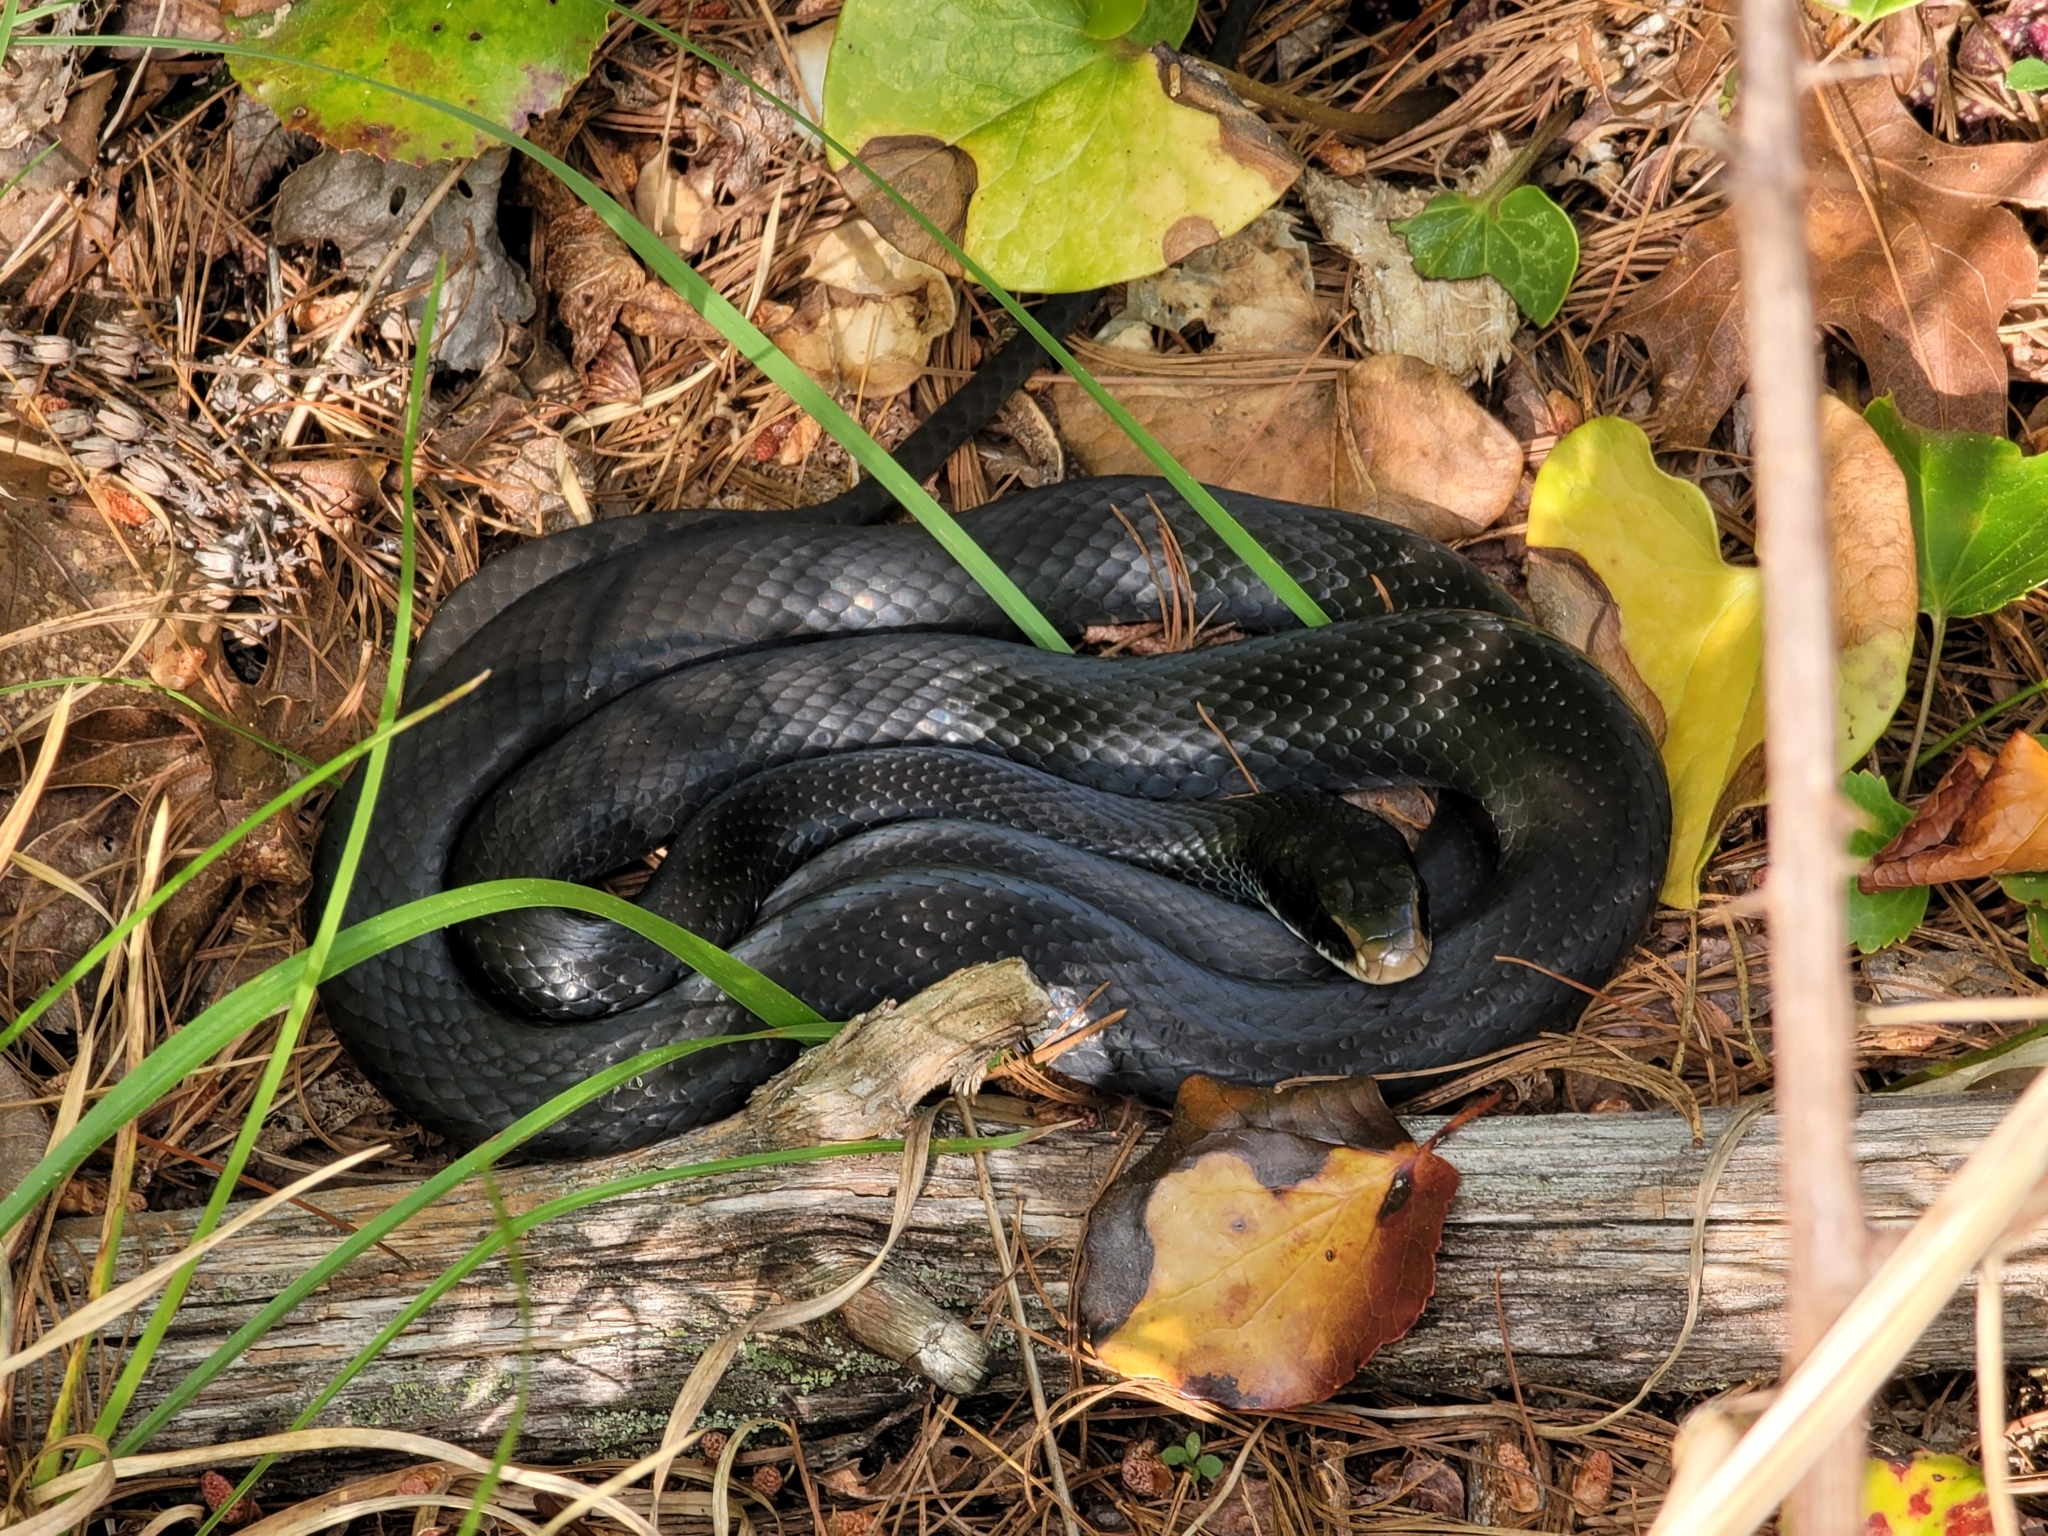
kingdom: Animalia
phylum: Chordata
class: Squamata
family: Colubridae
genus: Coluber
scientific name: Coluber constrictor
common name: Eastern racer
